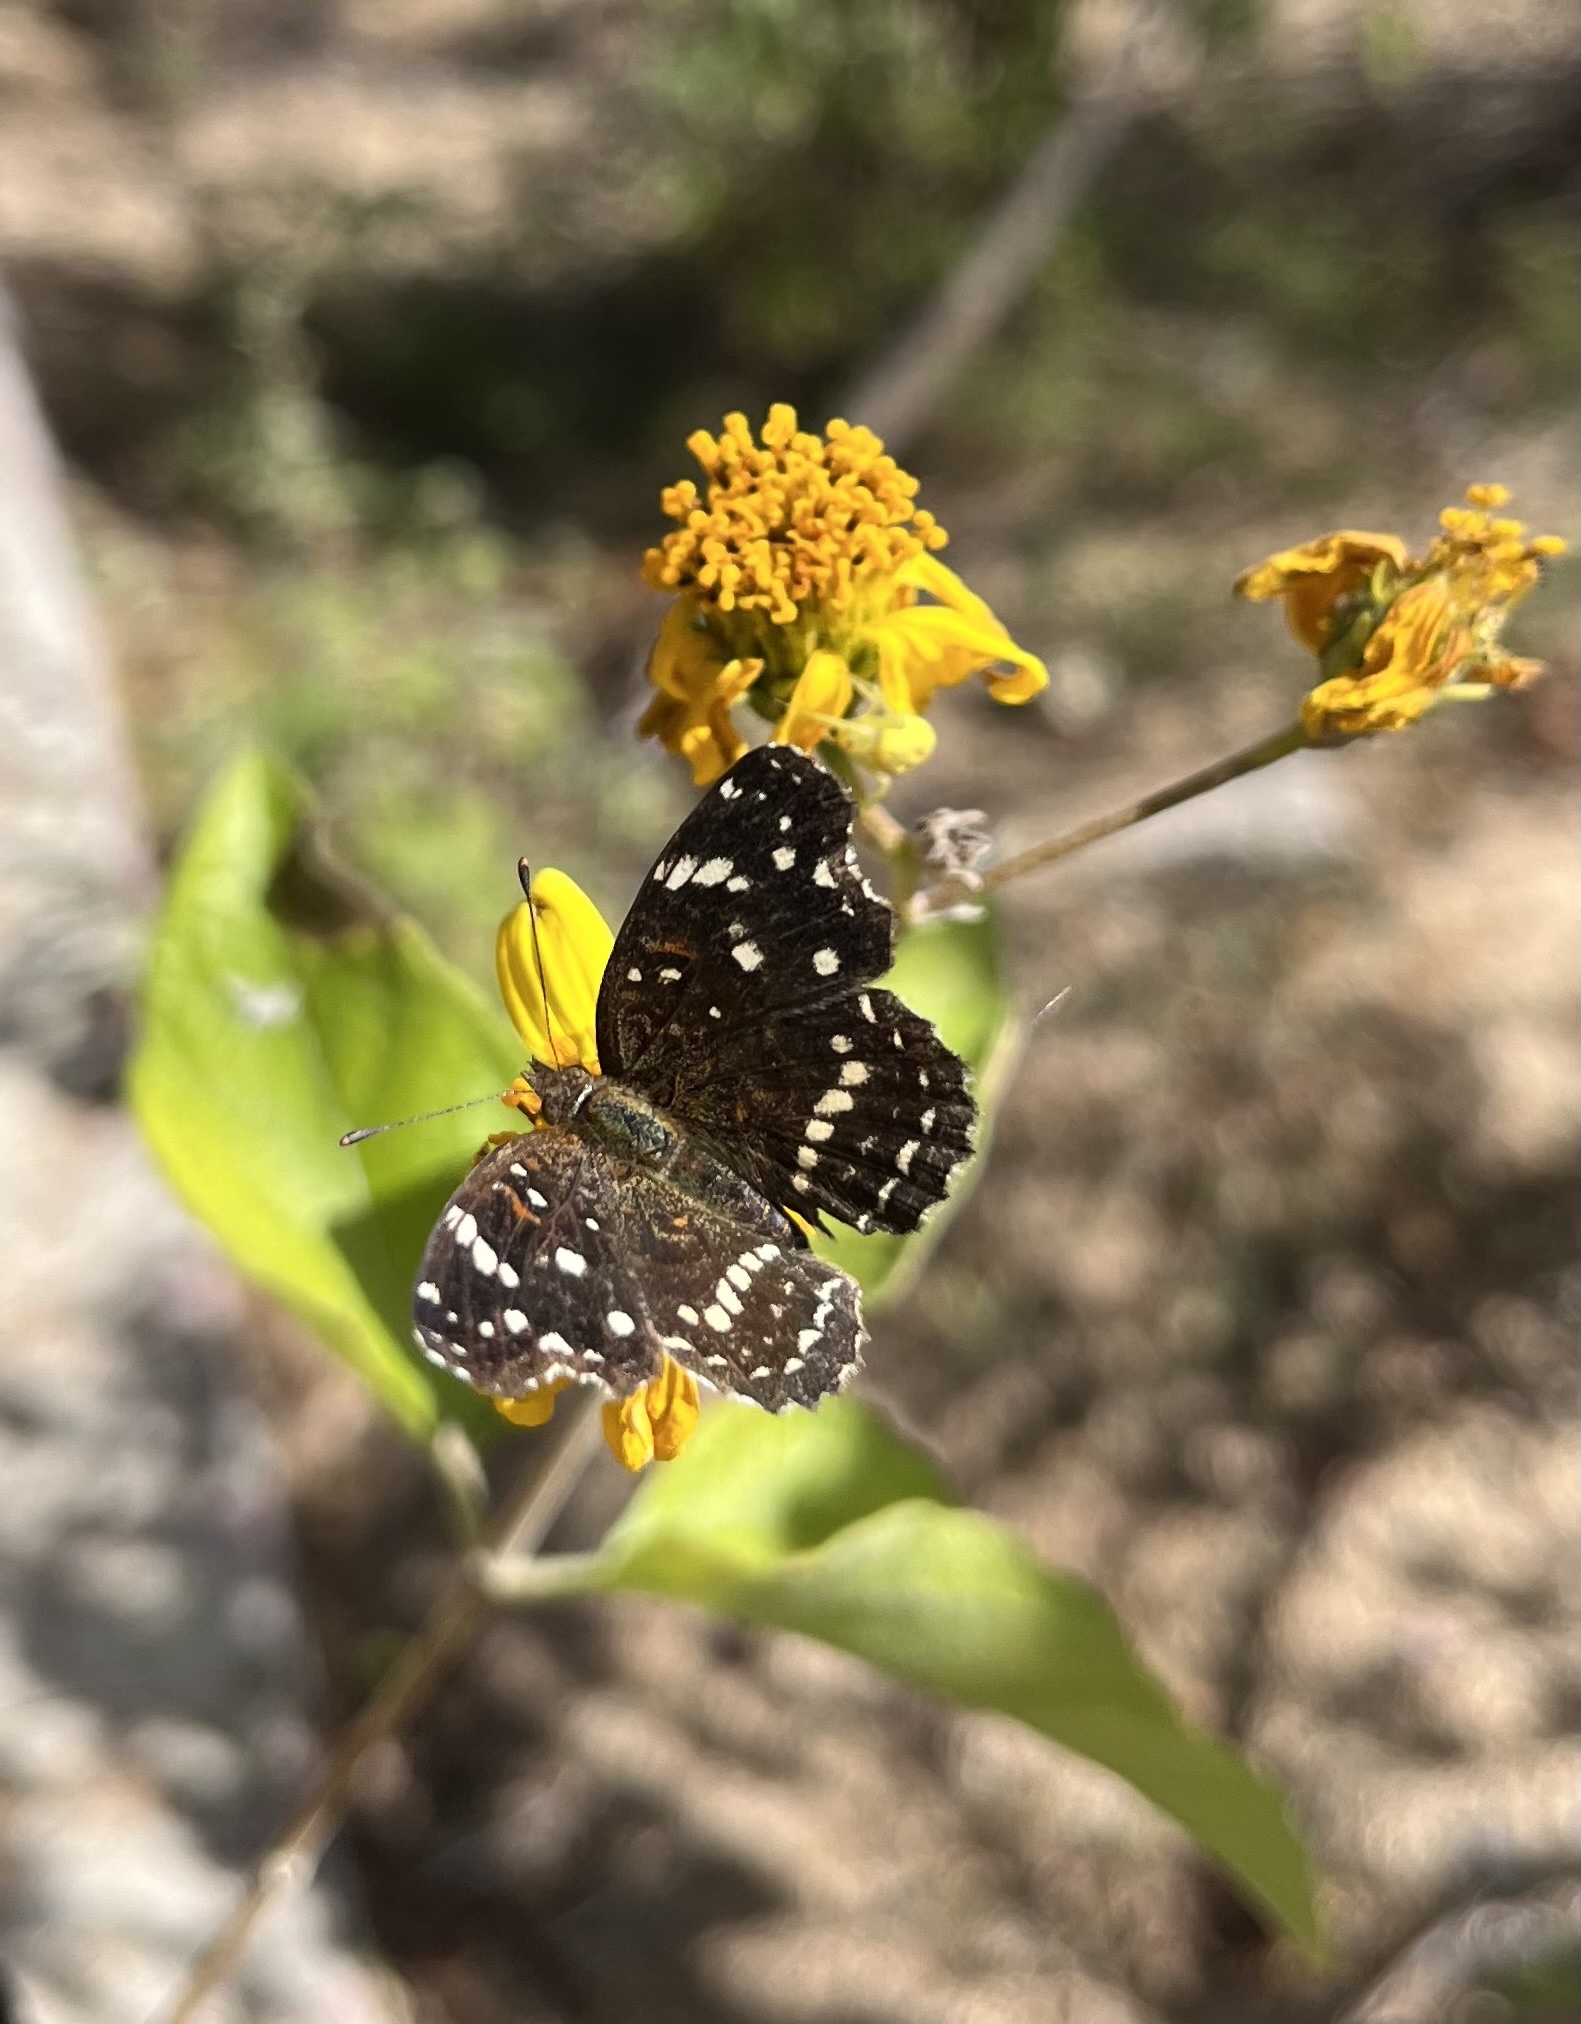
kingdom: Animalia
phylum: Arthropoda
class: Insecta
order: Lepidoptera
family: Nymphalidae
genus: Anthanassa
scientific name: Anthanassa texana
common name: Texan crescent
